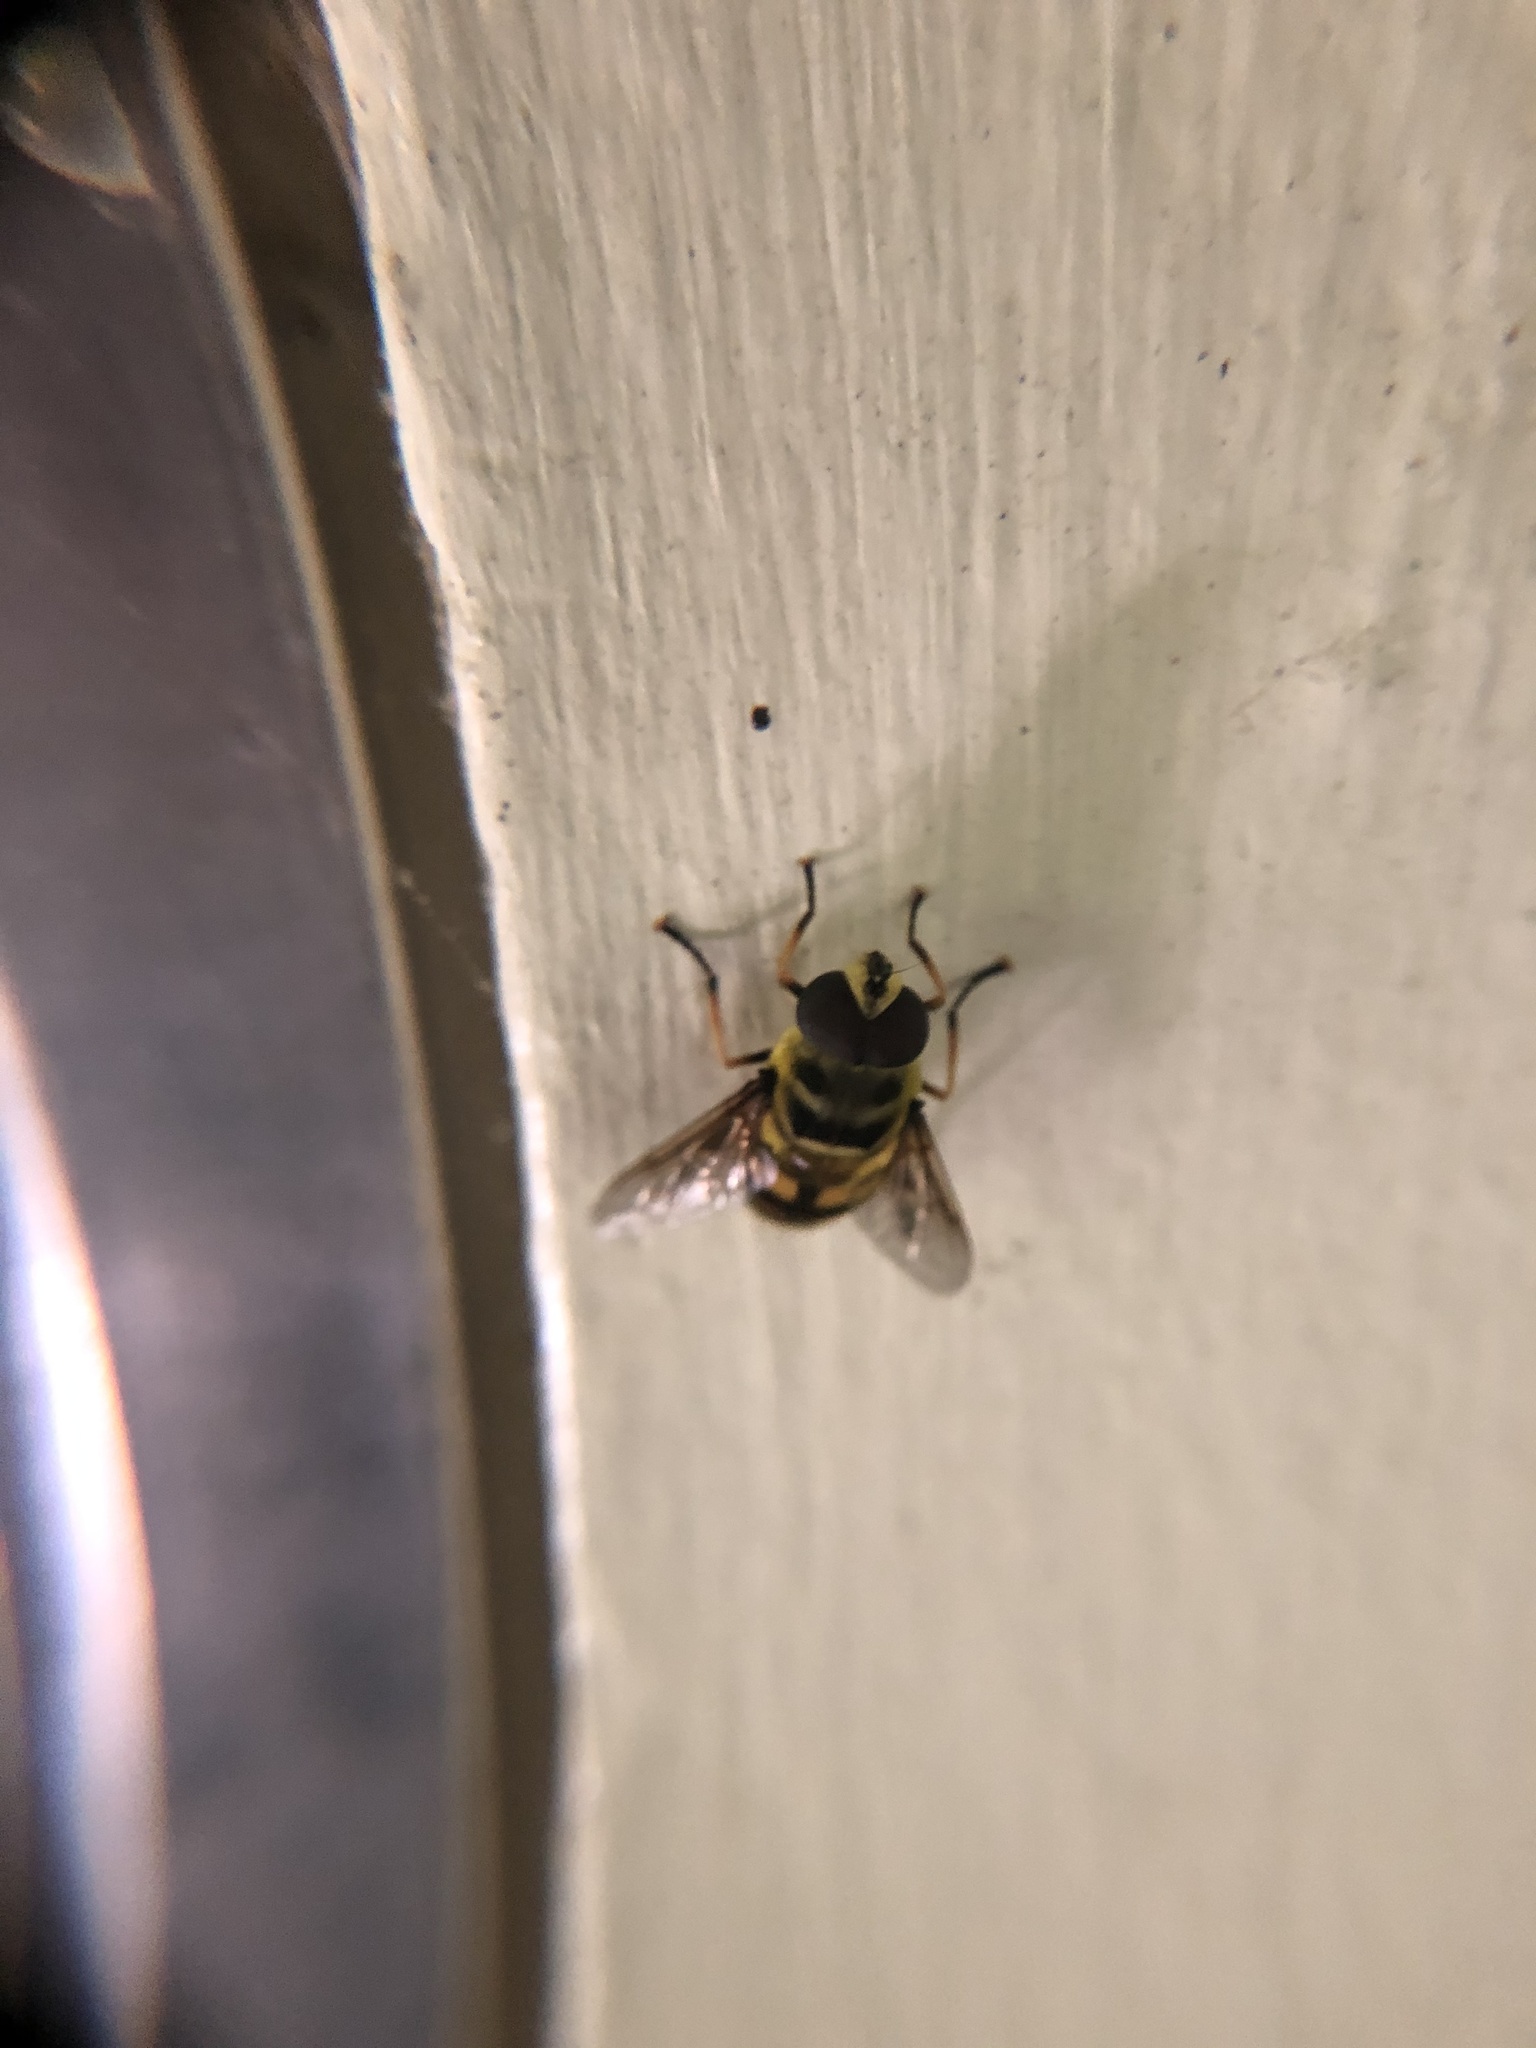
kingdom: Animalia
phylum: Arthropoda
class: Insecta
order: Diptera
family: Syrphidae
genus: Myathropa
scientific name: Myathropa florea
